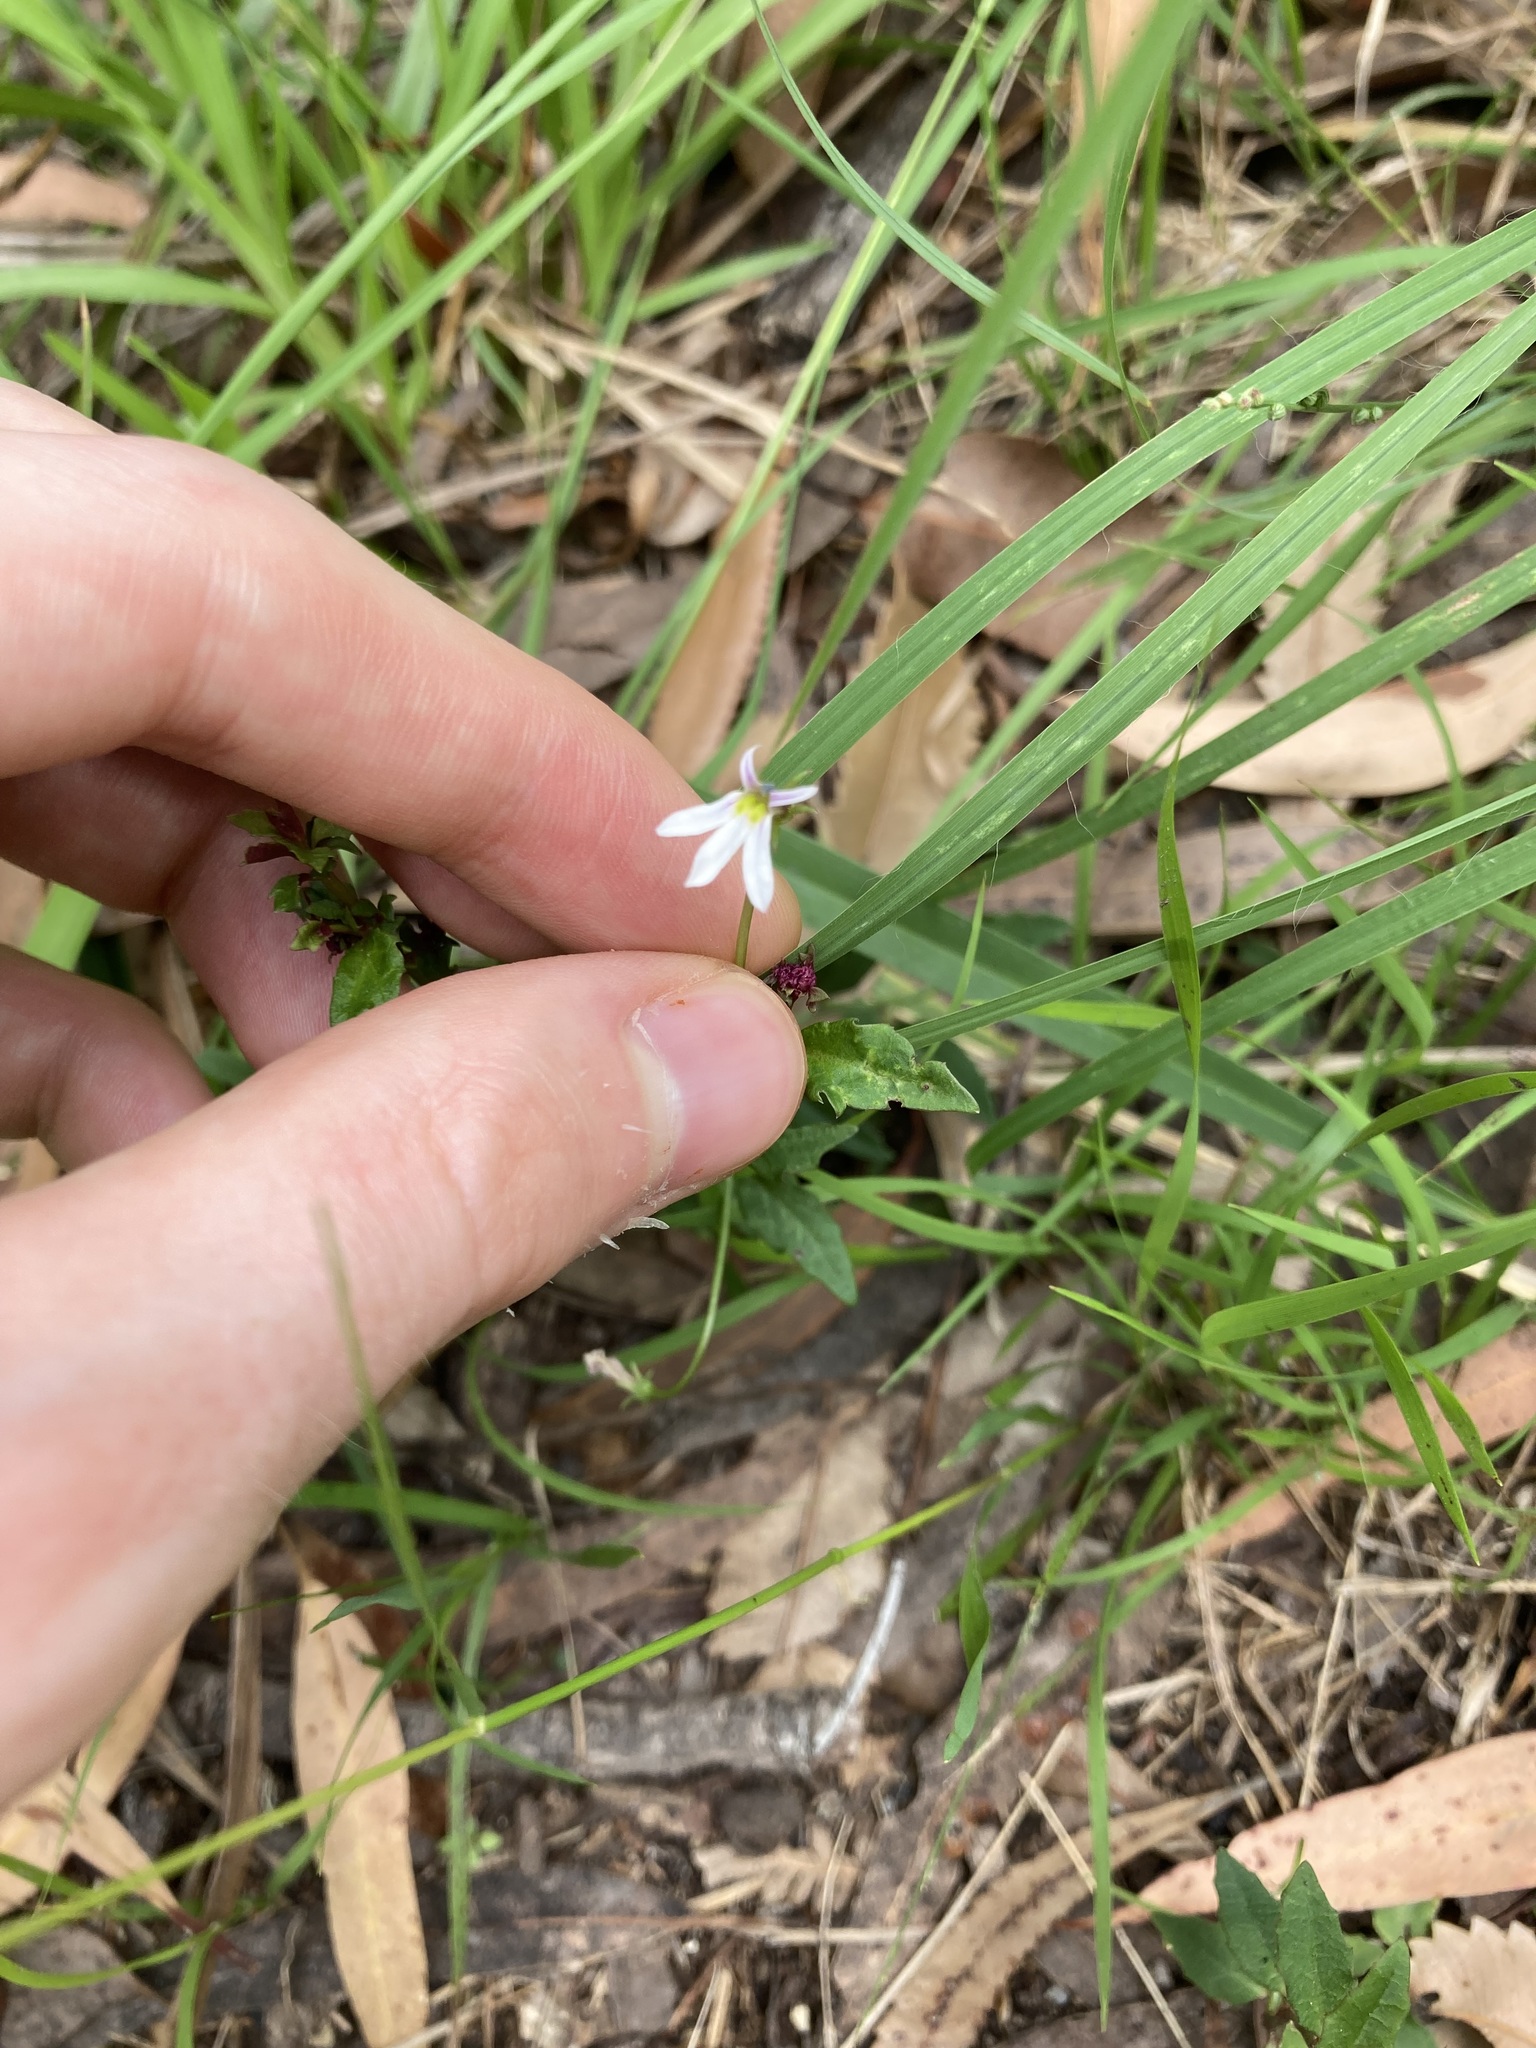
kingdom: Plantae
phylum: Tracheophyta
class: Magnoliopsida
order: Asterales
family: Campanulaceae
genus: Lobelia
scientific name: Lobelia purpurascens
